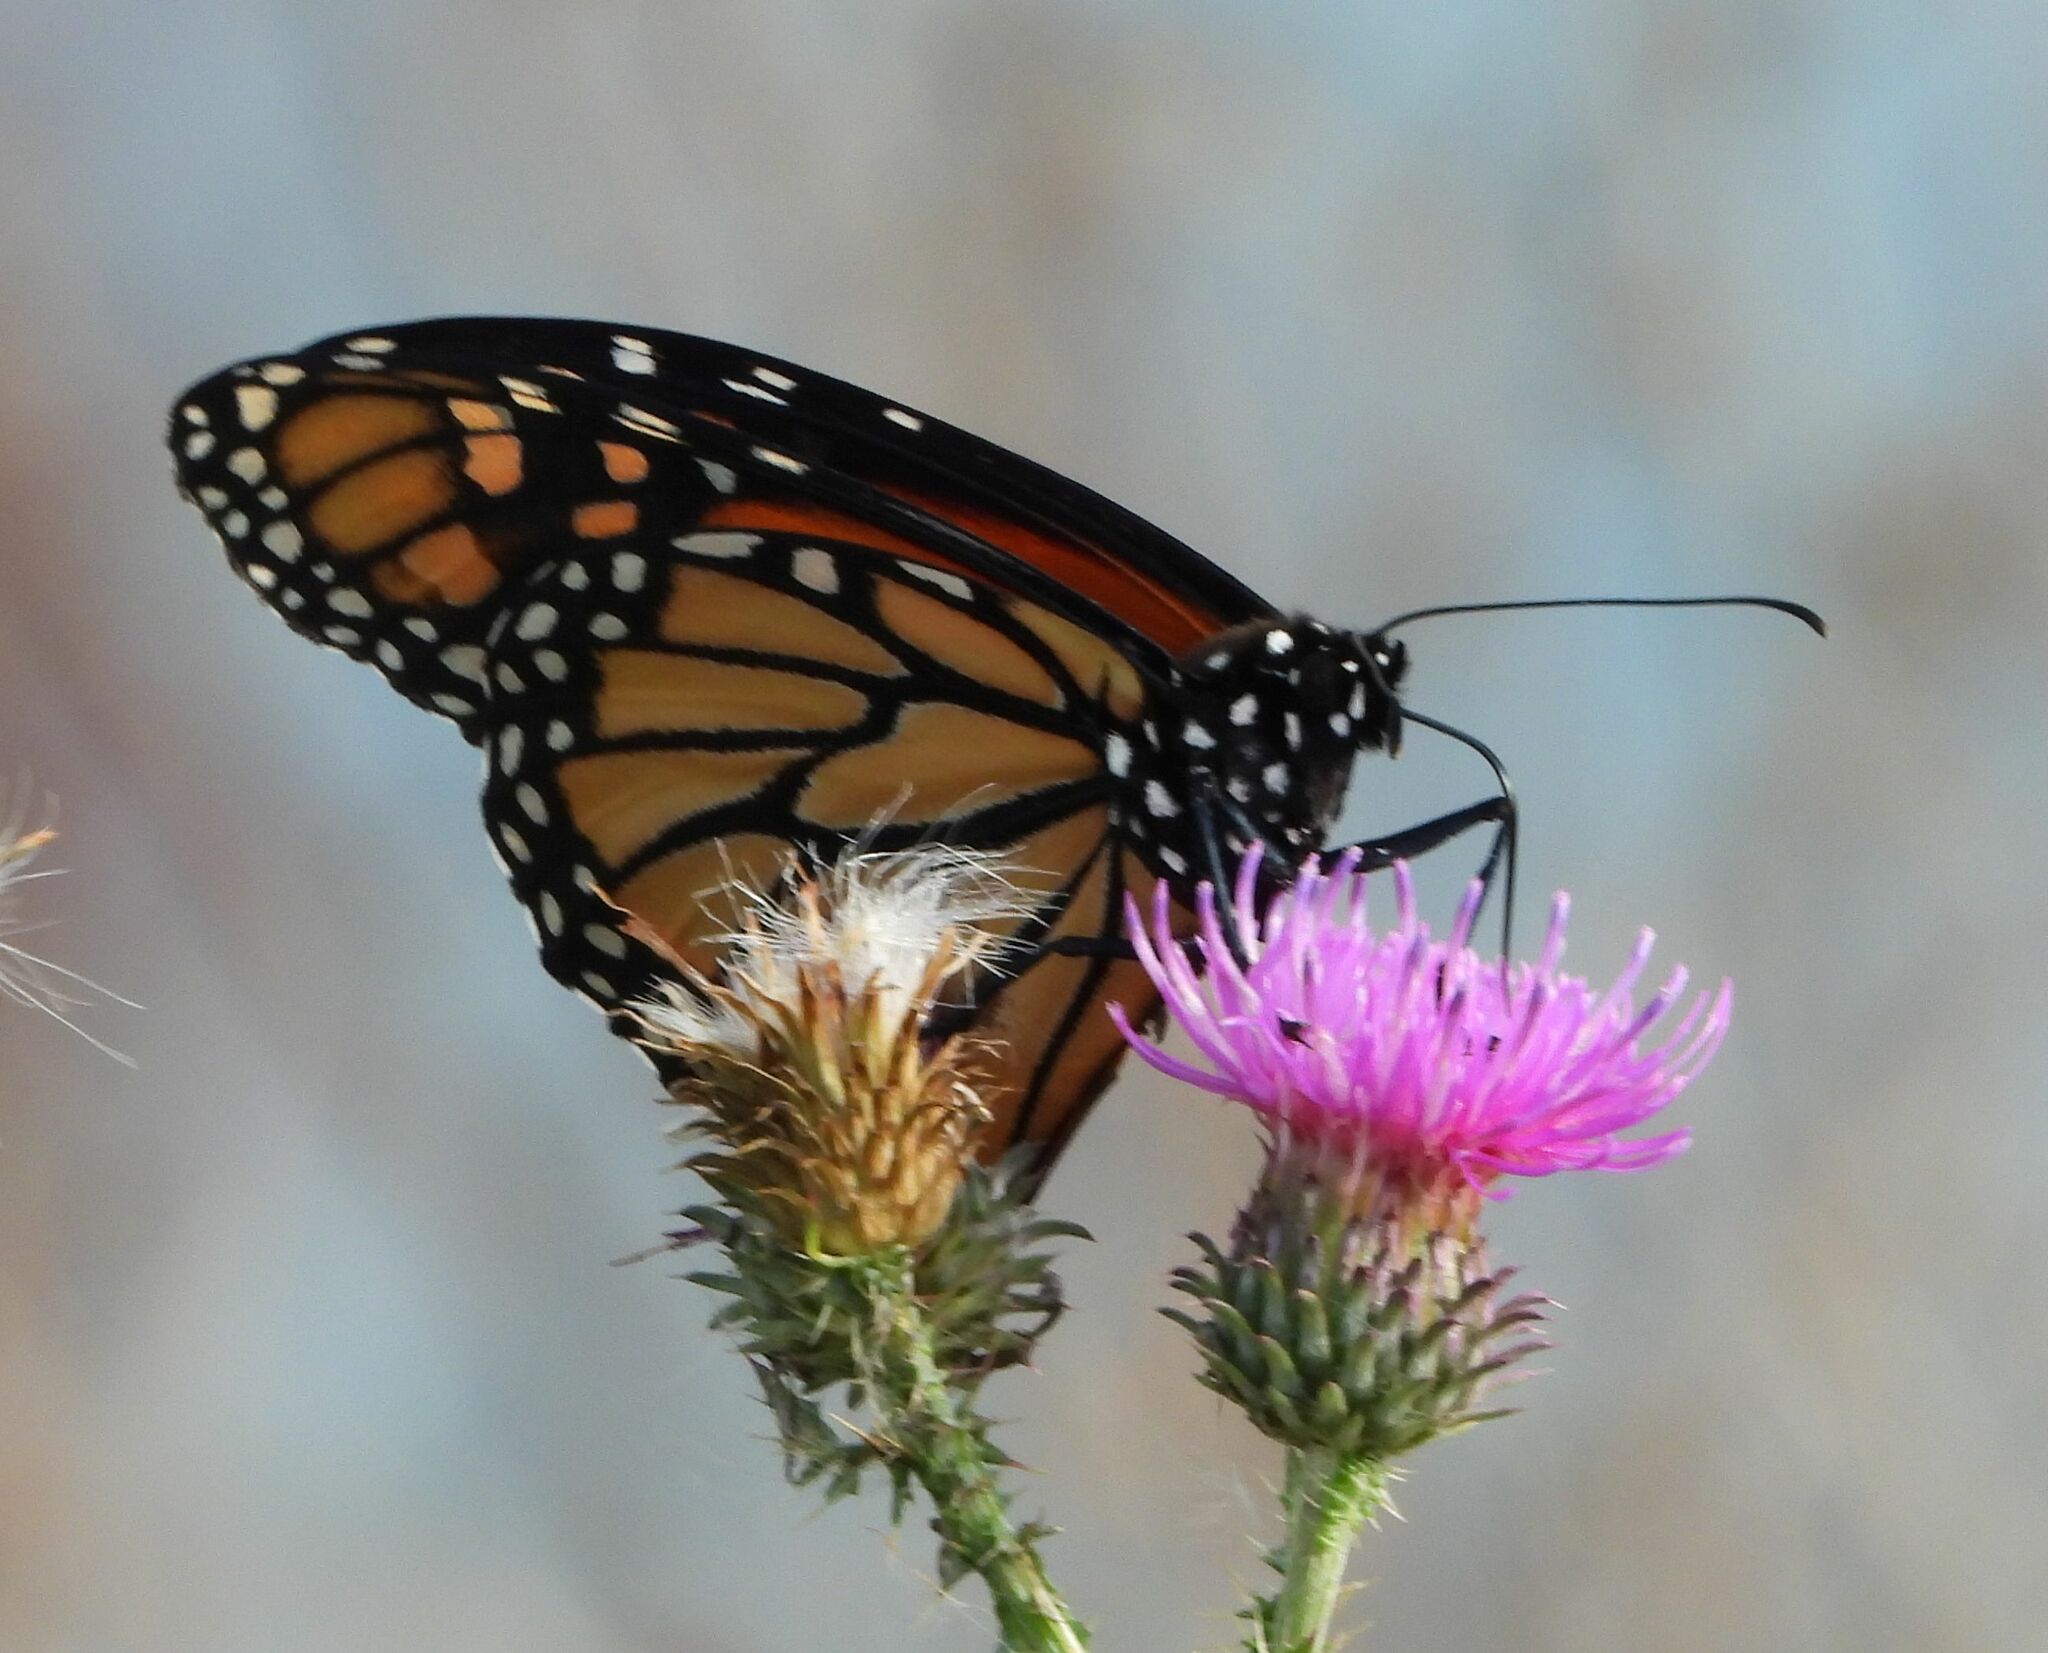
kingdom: Animalia
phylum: Arthropoda
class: Insecta
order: Lepidoptera
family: Nymphalidae
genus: Danaus
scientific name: Danaus plexippus
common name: Monarch
